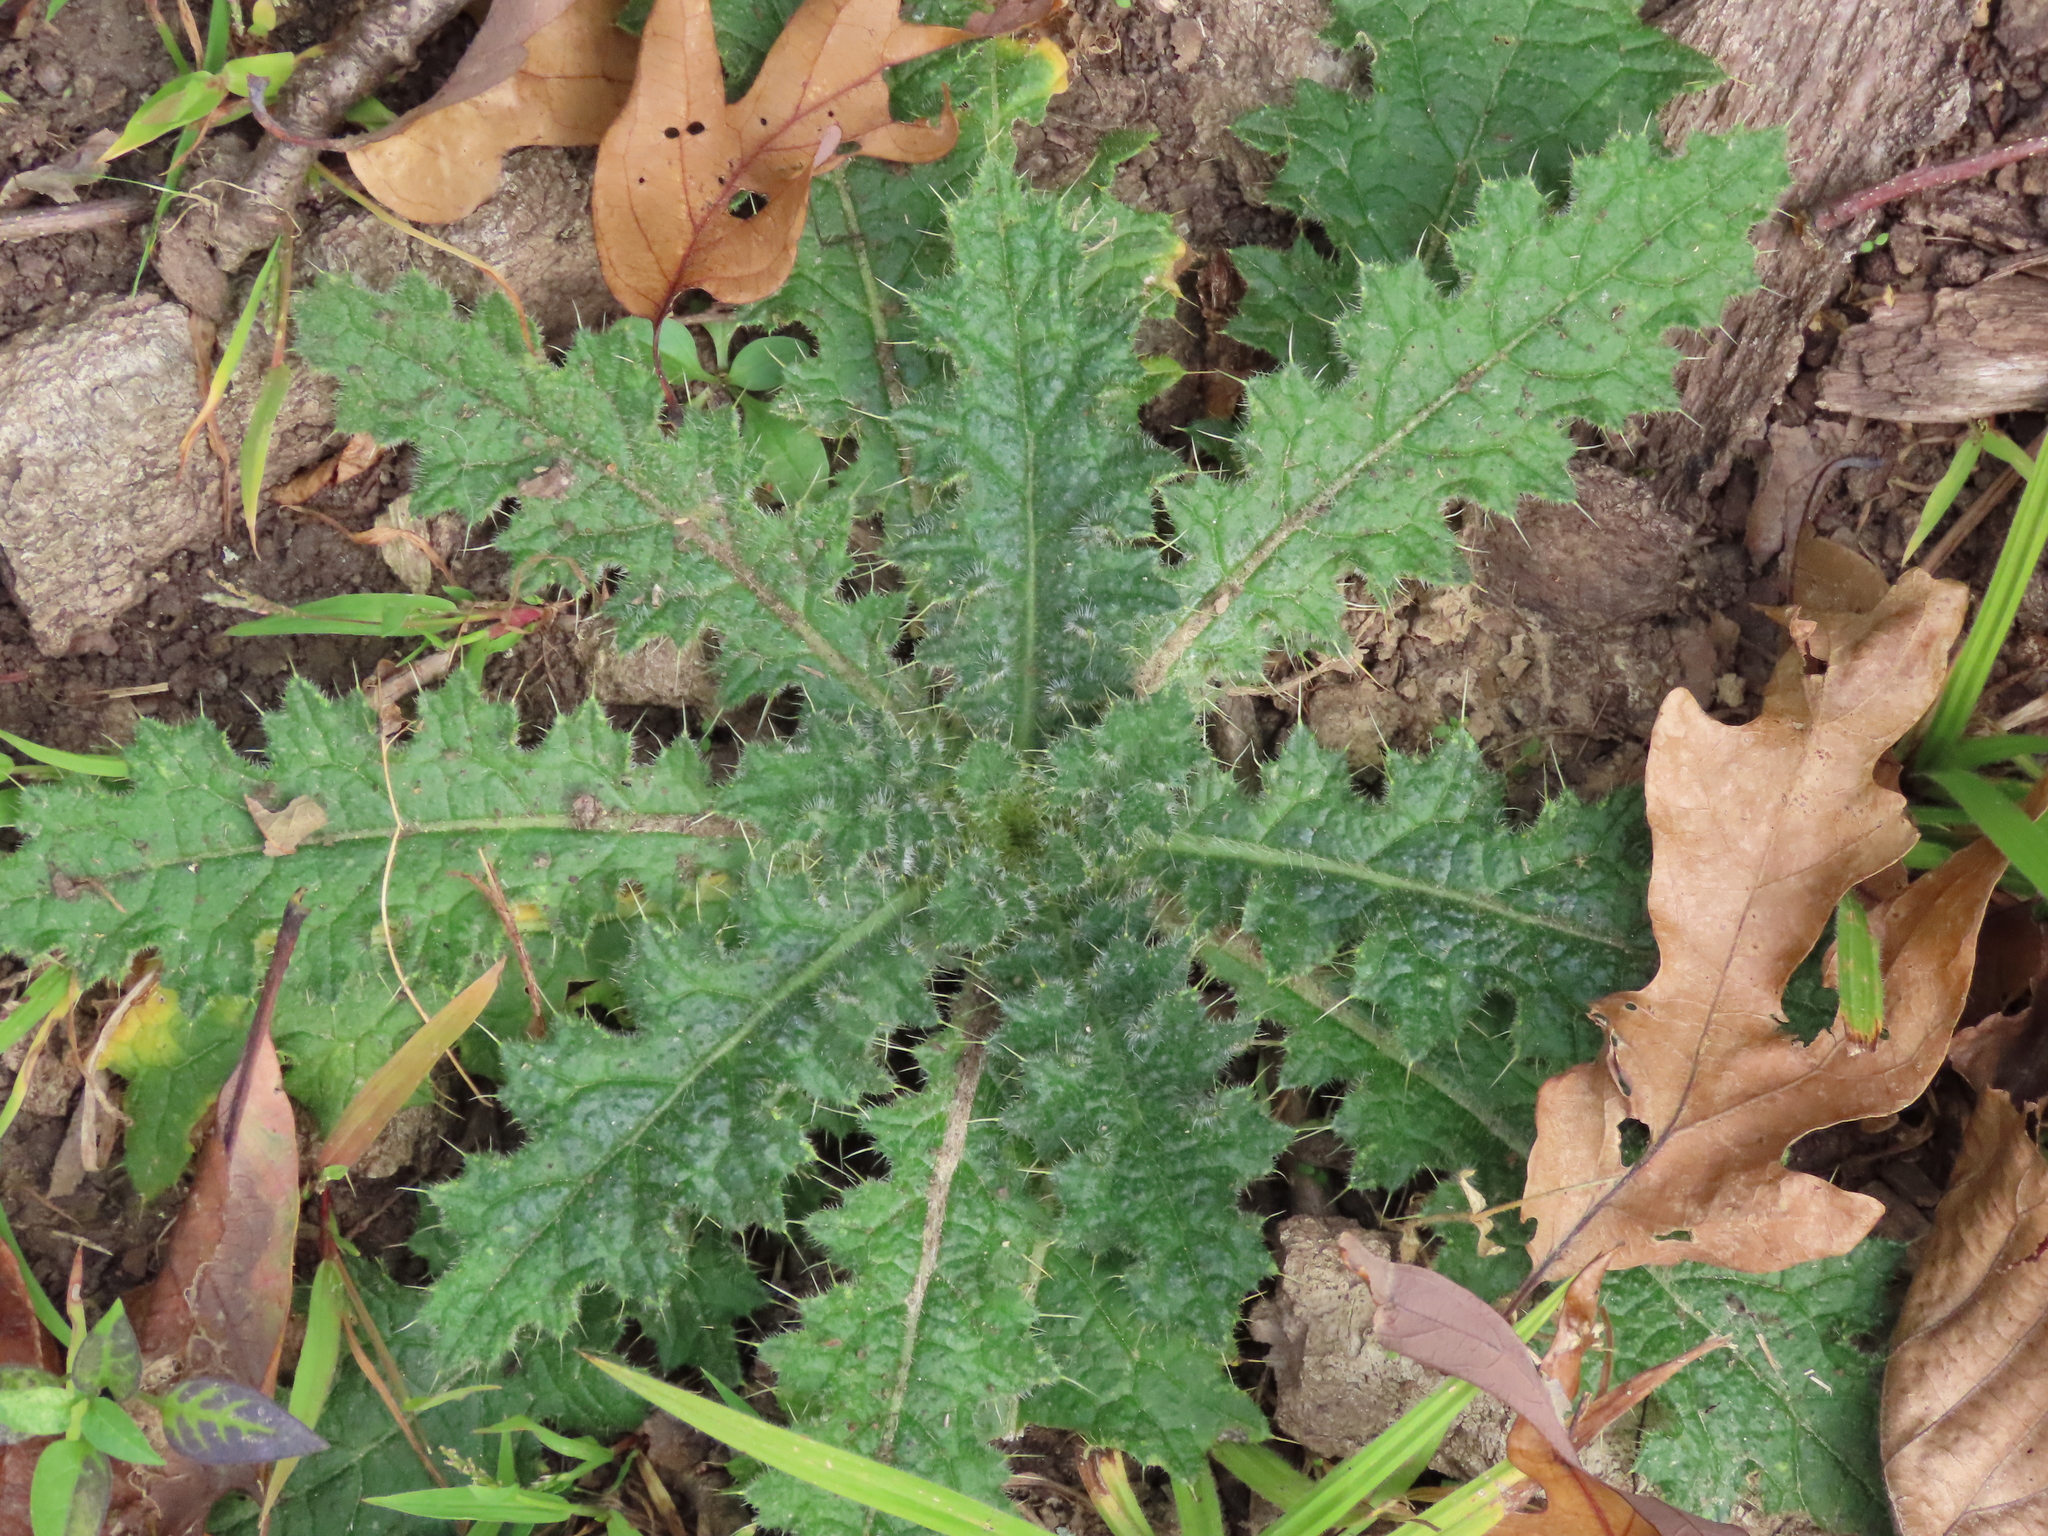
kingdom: Plantae
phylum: Tracheophyta
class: Magnoliopsida
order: Asterales
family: Asteraceae
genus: Cirsium
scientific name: Cirsium vulgare
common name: Bull thistle
